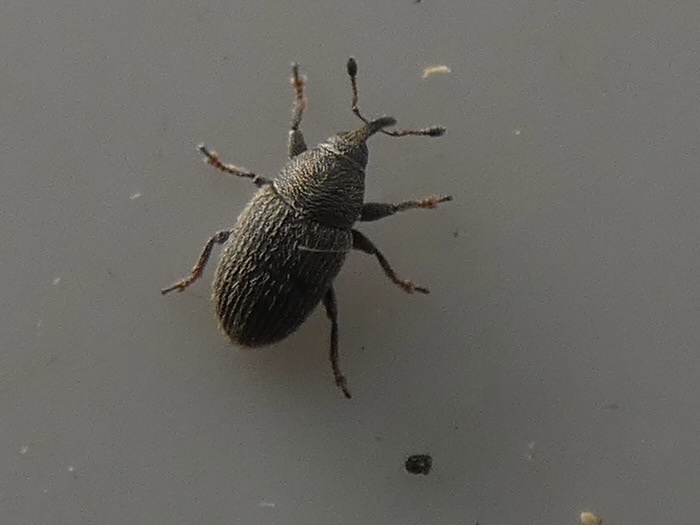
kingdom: Animalia
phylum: Arthropoda
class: Insecta
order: Coleoptera
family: Curculionidae
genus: Mecinus
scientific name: Mecinus pascuorum
